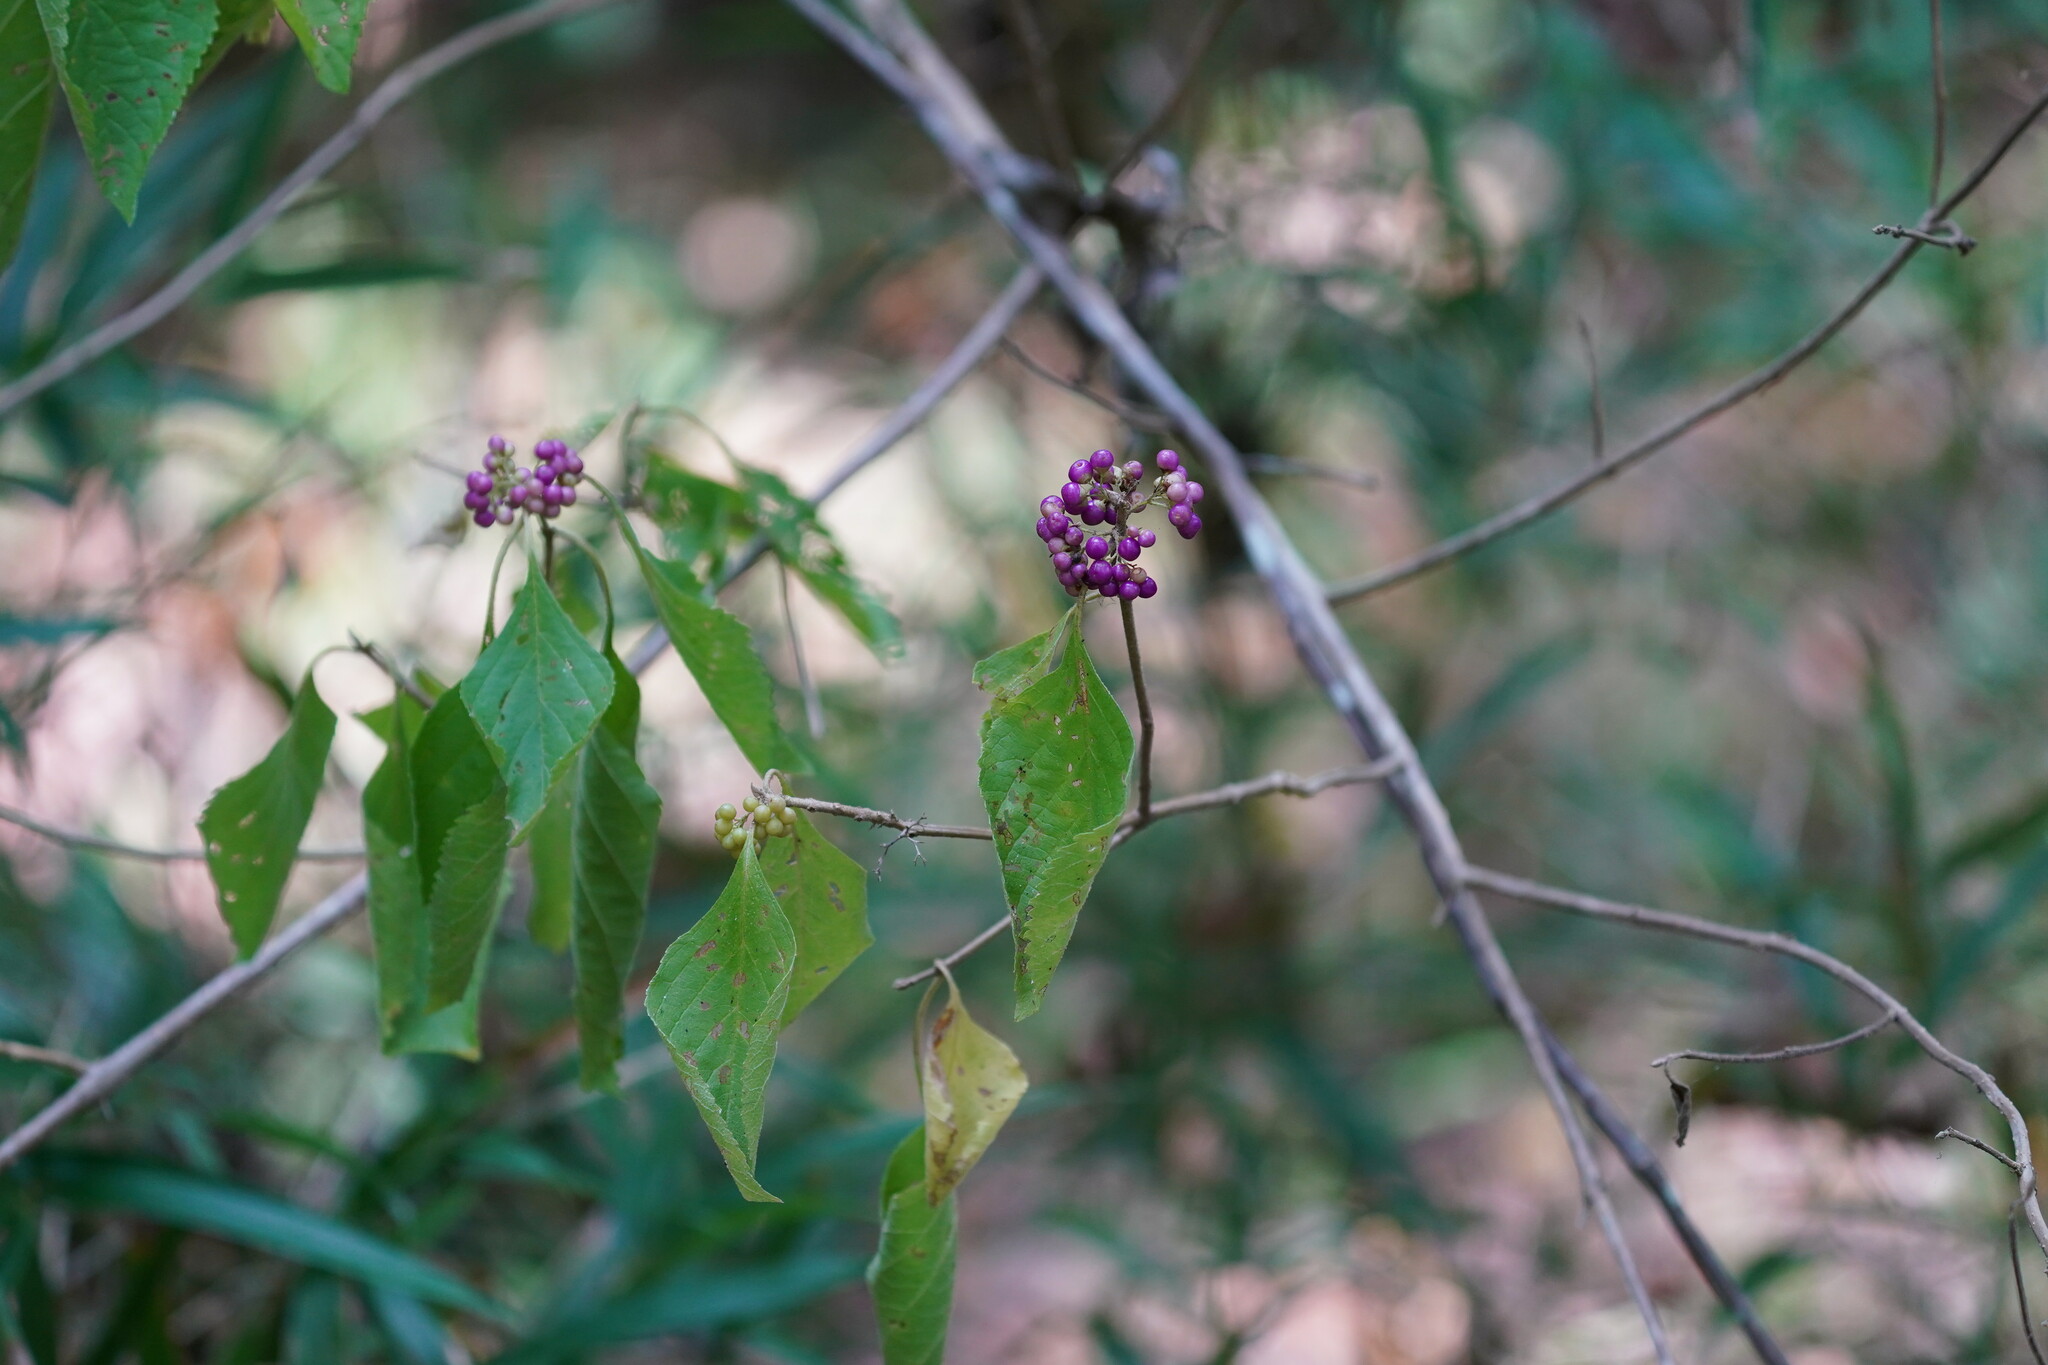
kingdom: Plantae
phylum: Tracheophyta
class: Magnoliopsida
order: Lamiales
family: Lamiaceae
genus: Callicarpa
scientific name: Callicarpa americana
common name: American beautyberry
